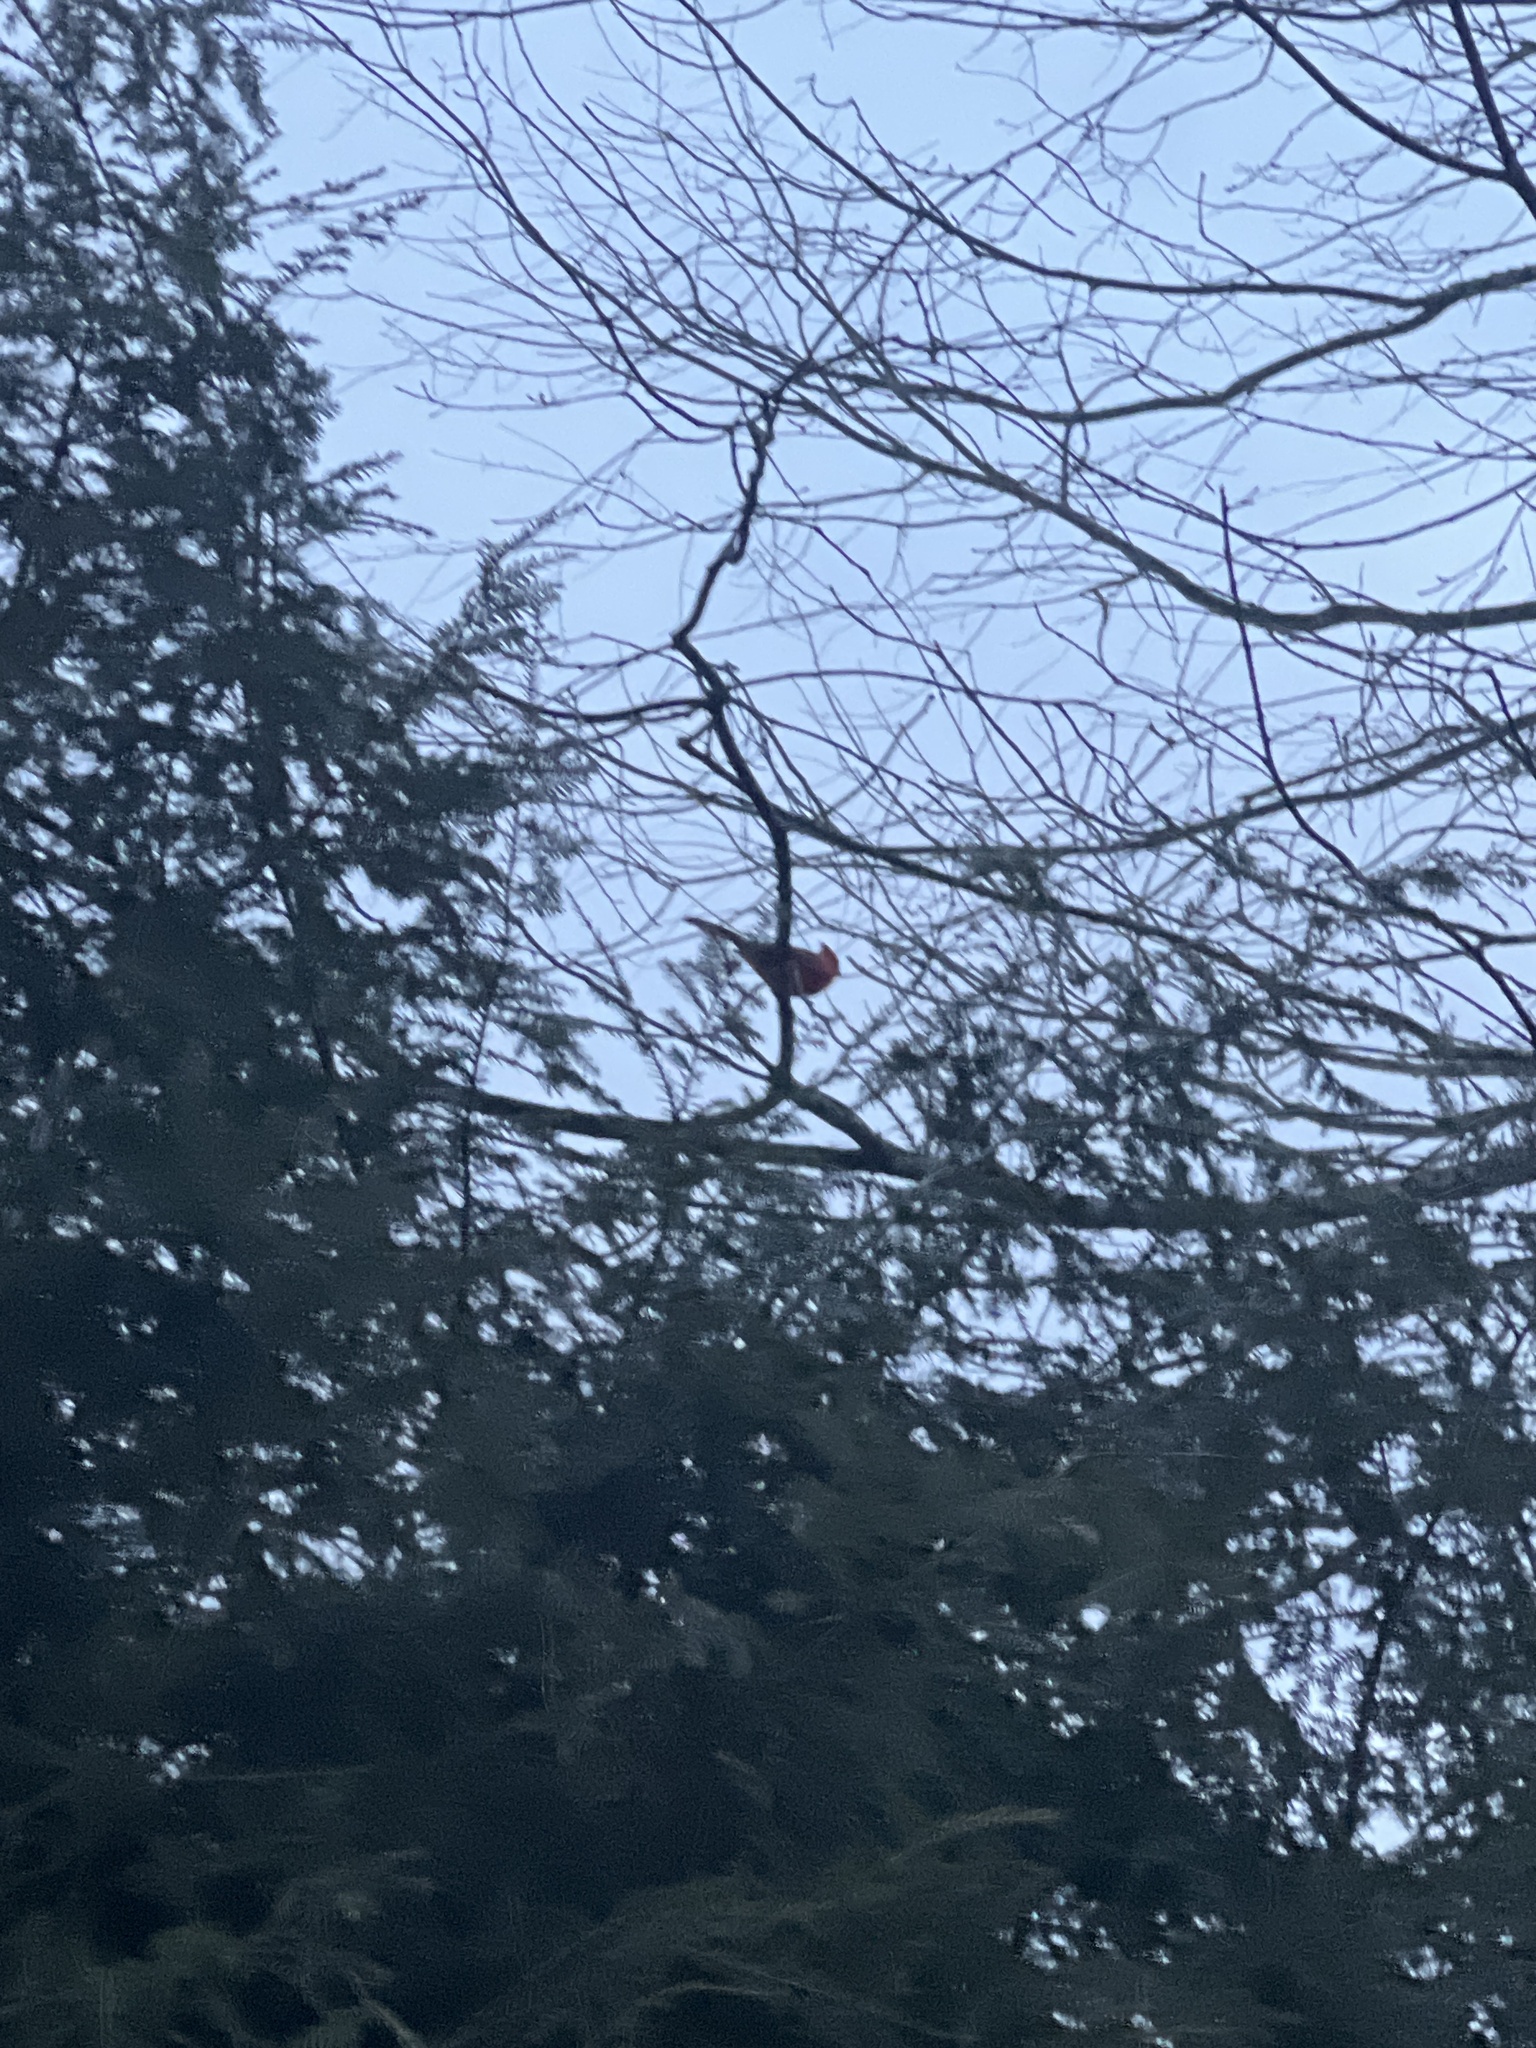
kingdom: Animalia
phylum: Chordata
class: Aves
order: Passeriformes
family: Cardinalidae
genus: Cardinalis
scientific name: Cardinalis cardinalis
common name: Northern cardinal
